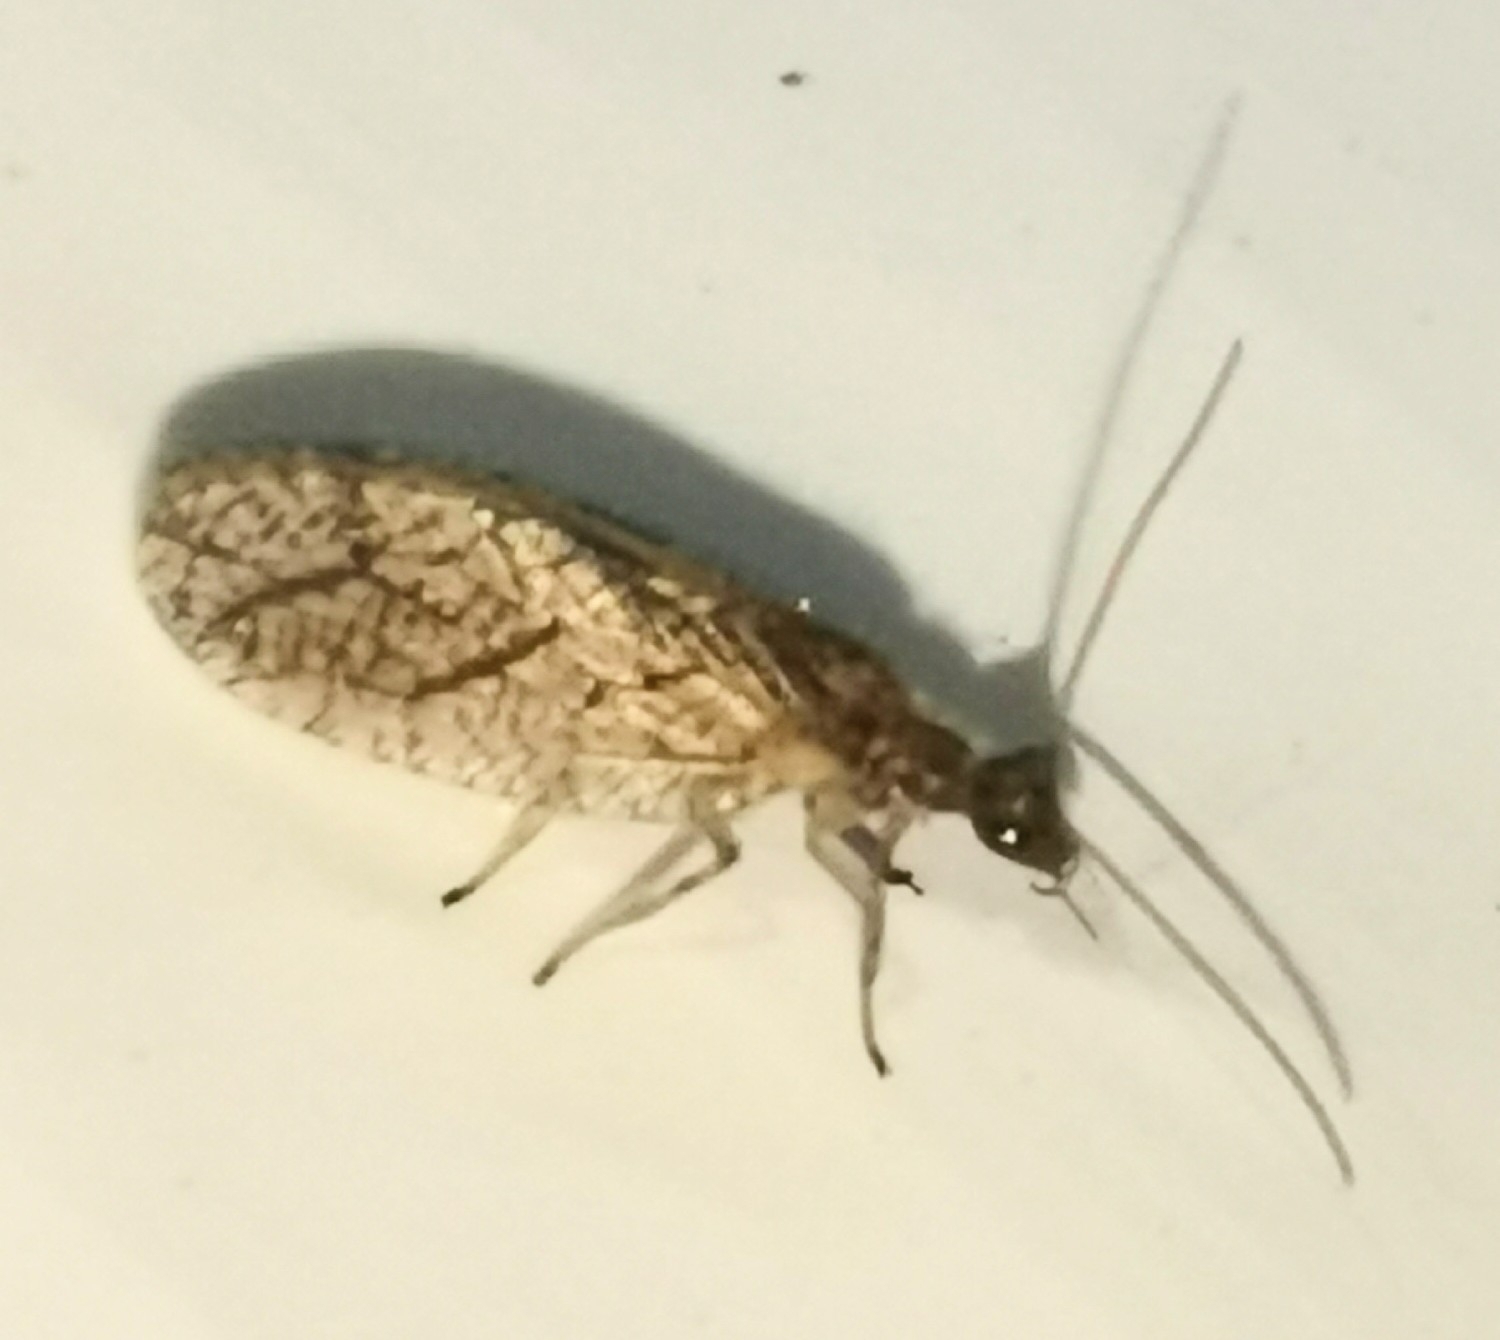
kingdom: Animalia
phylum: Arthropoda
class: Insecta
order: Neuroptera
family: Hemerobiidae
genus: Micromus
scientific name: Micromus angulatus
